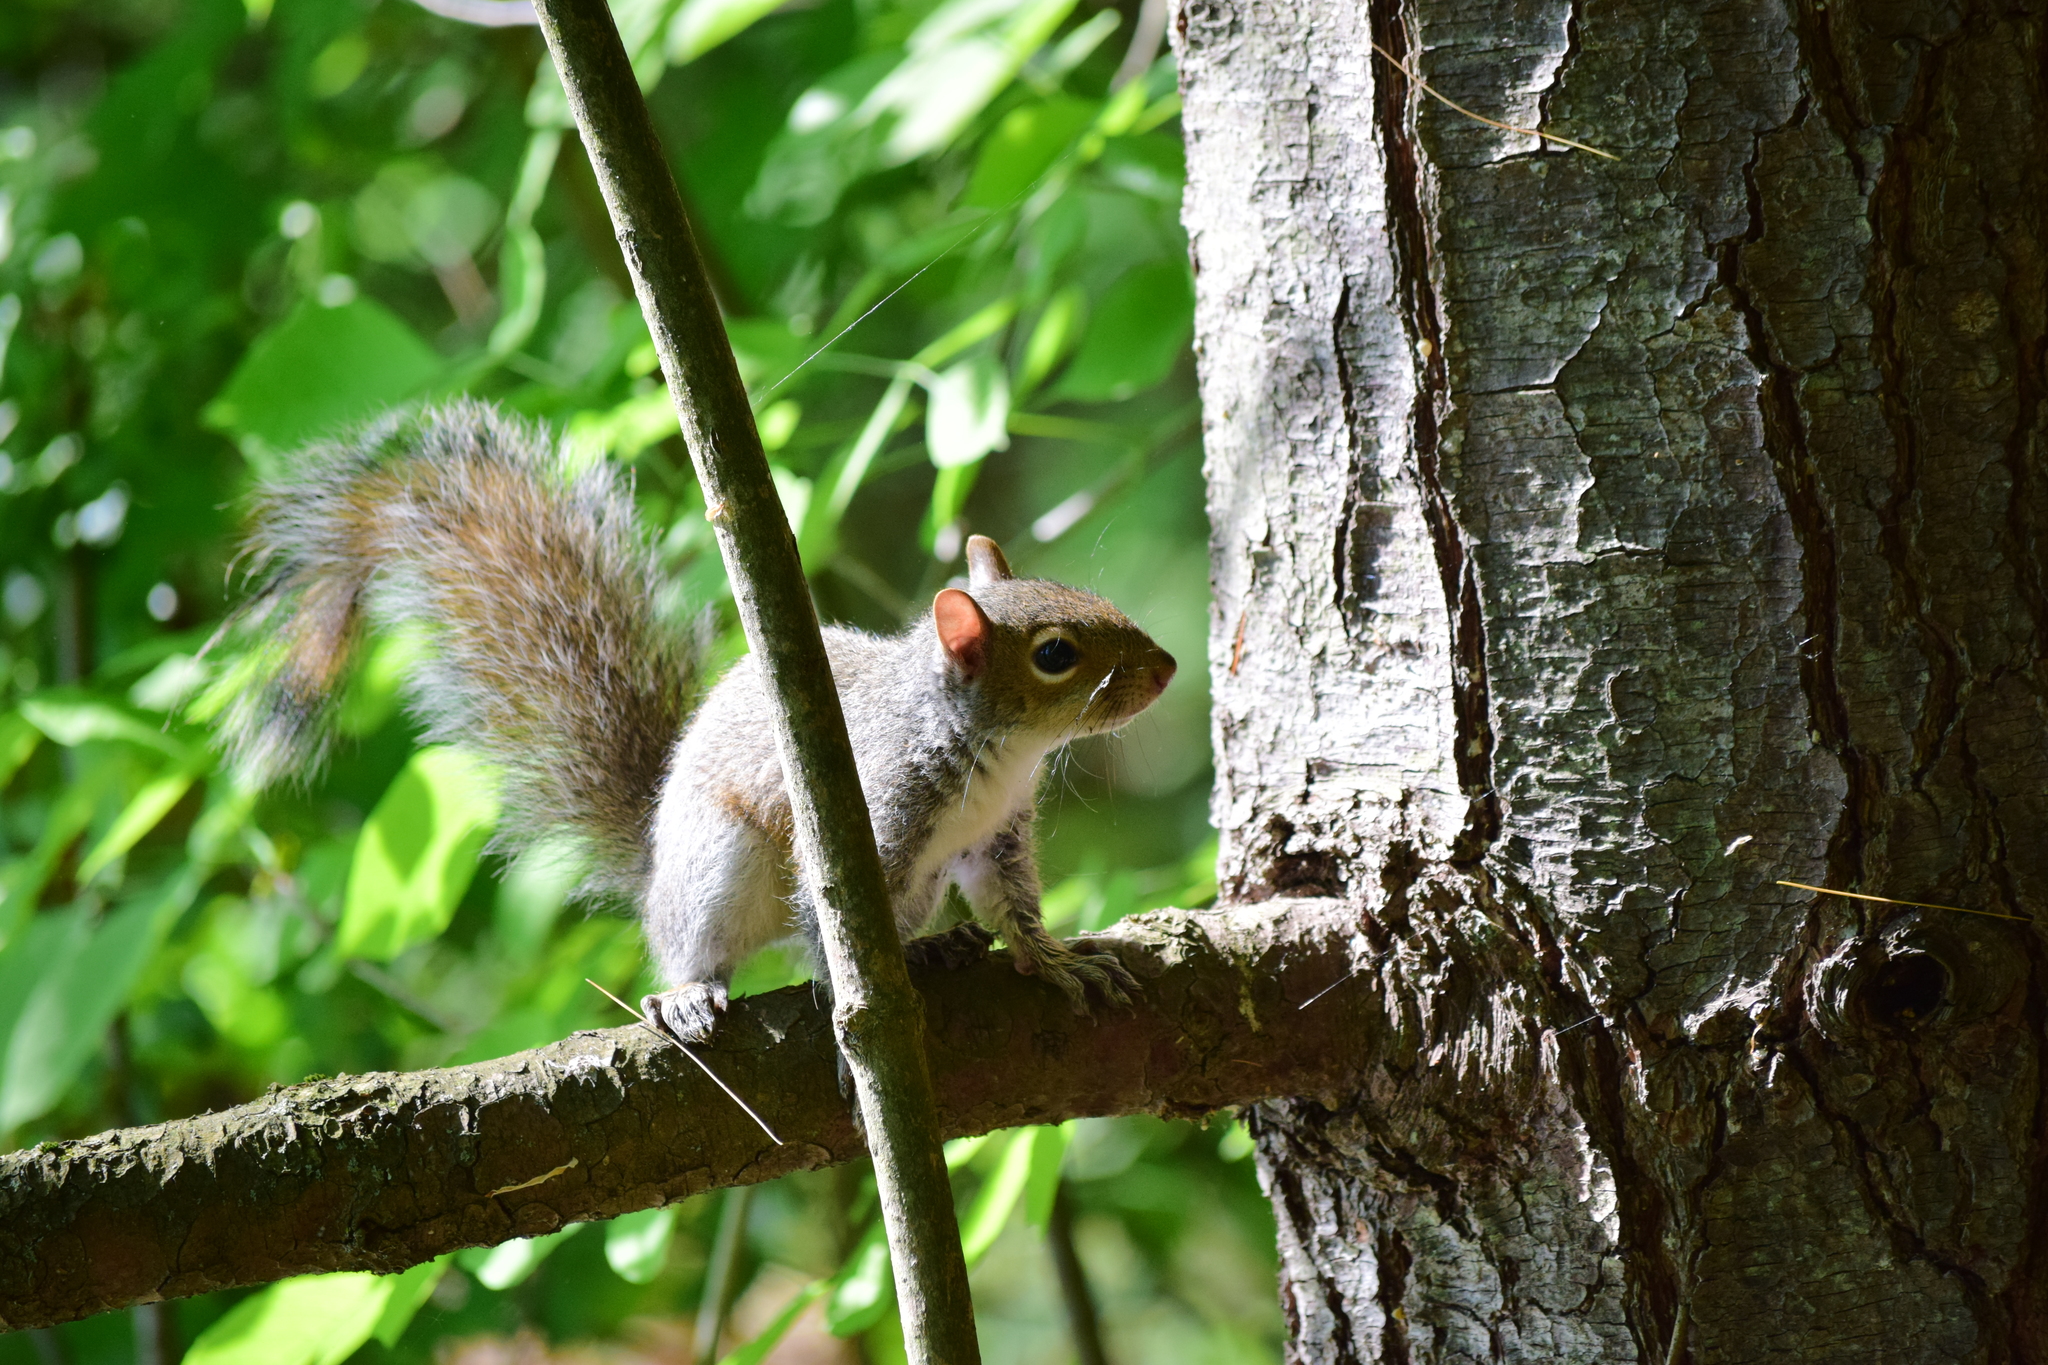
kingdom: Animalia
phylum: Chordata
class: Mammalia
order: Rodentia
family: Sciuridae
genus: Sciurus
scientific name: Sciurus carolinensis
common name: Eastern gray squirrel
